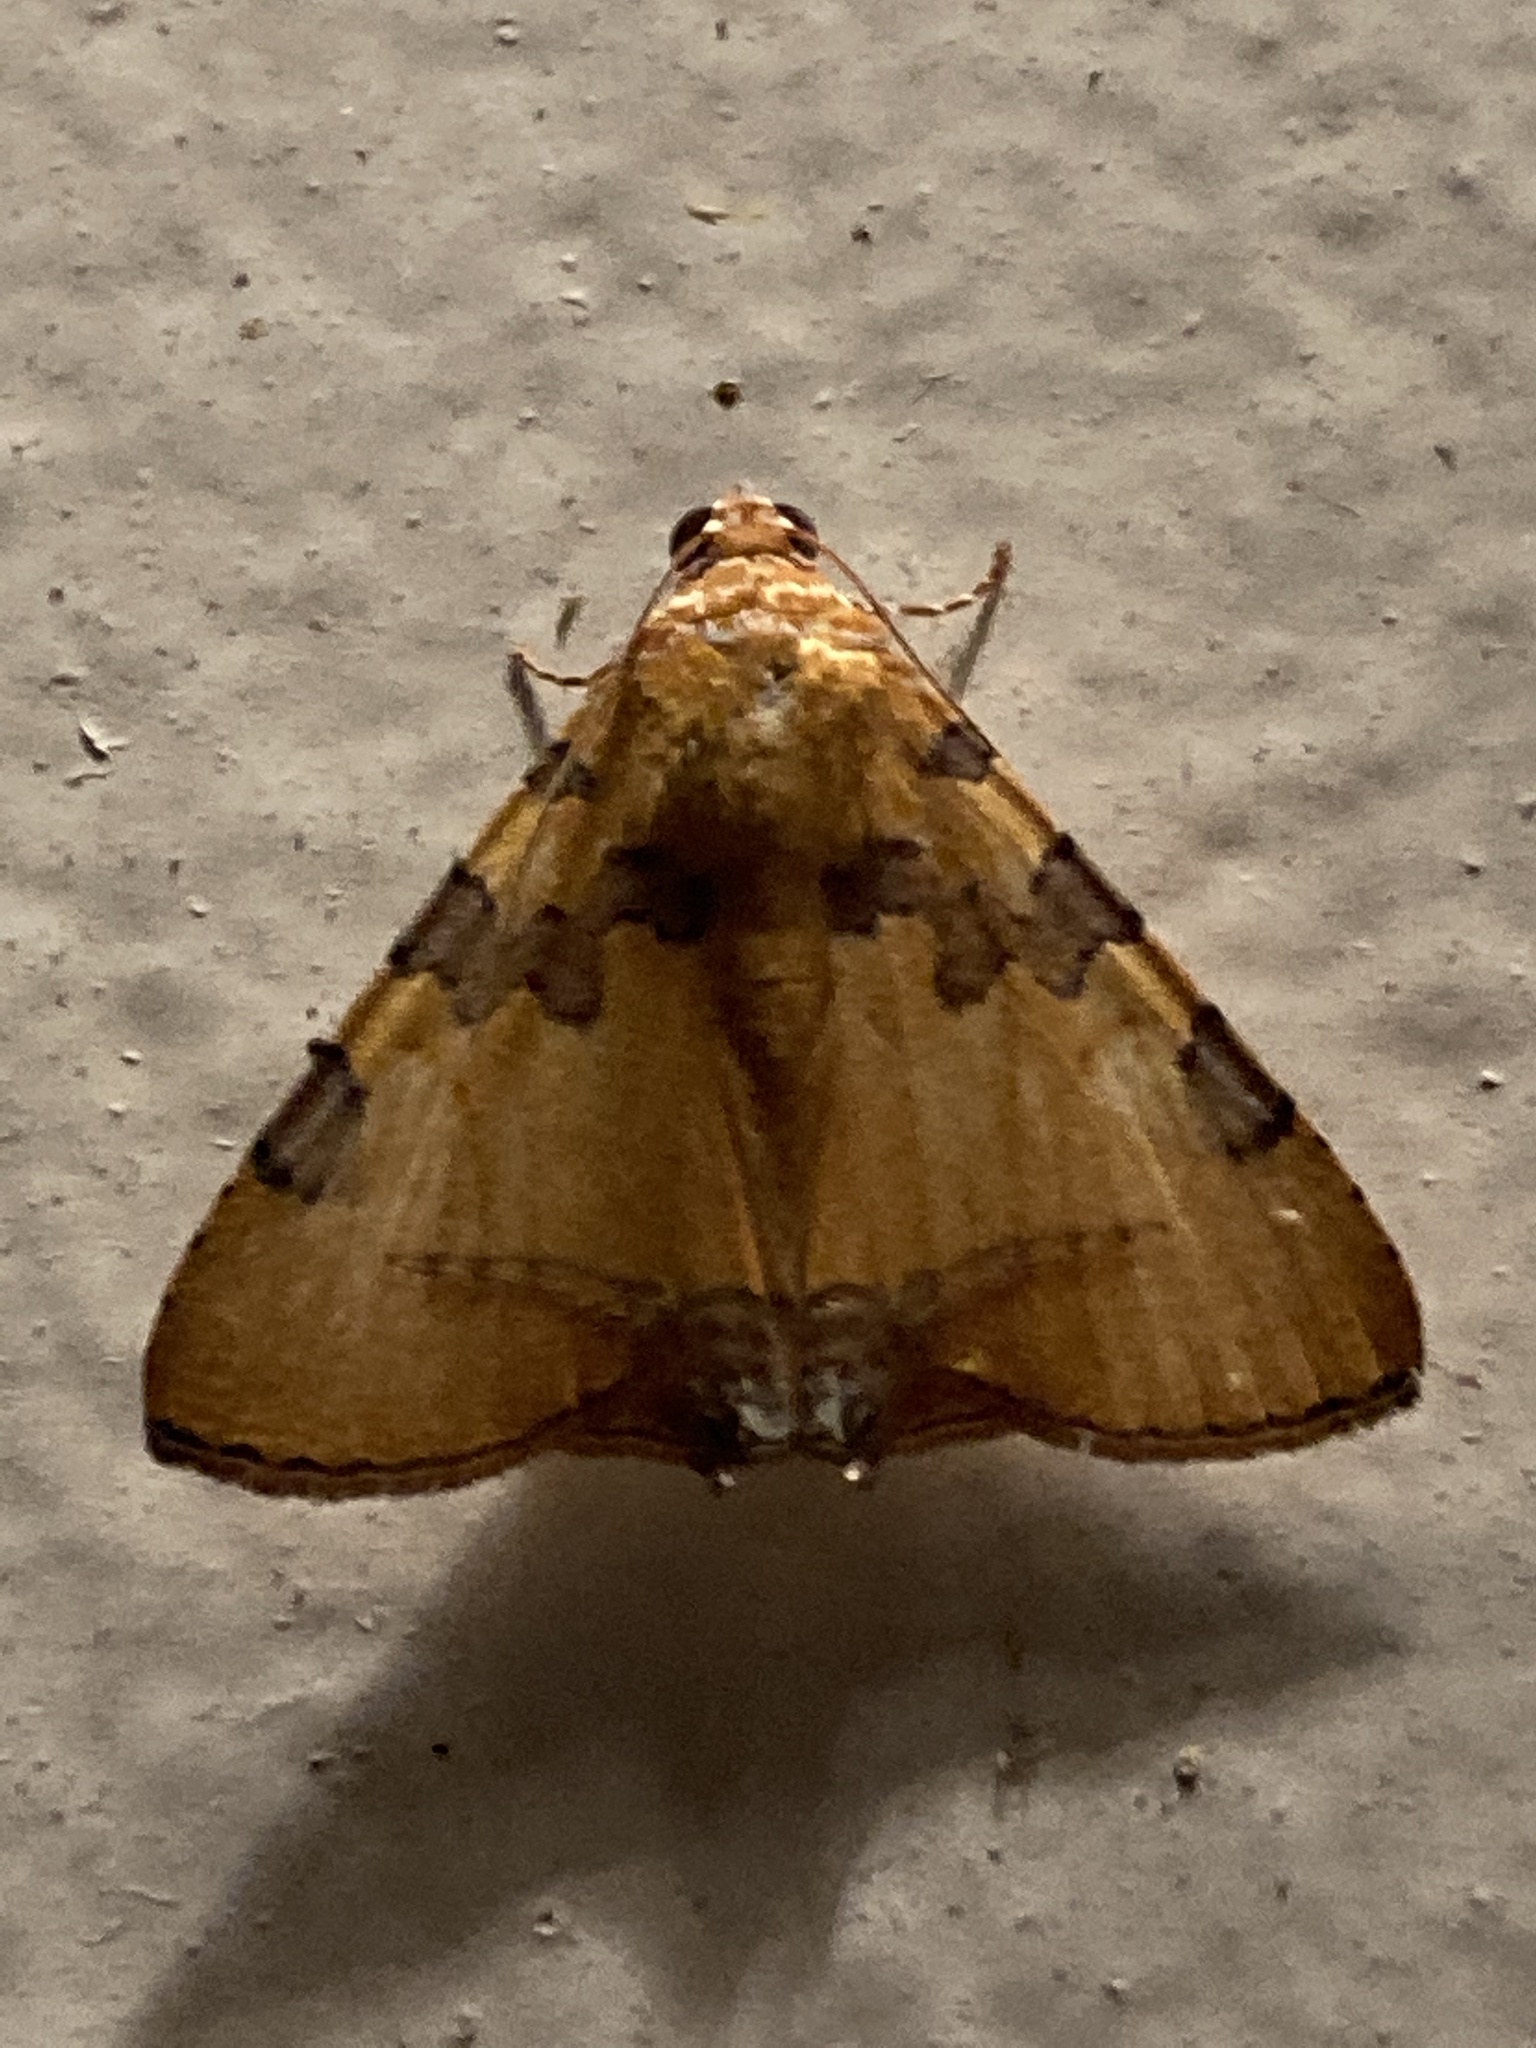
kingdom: Animalia
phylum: Arthropoda
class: Insecta
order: Lepidoptera
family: Erebidae
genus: Eulepidotis
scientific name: Eulepidotis hermura
